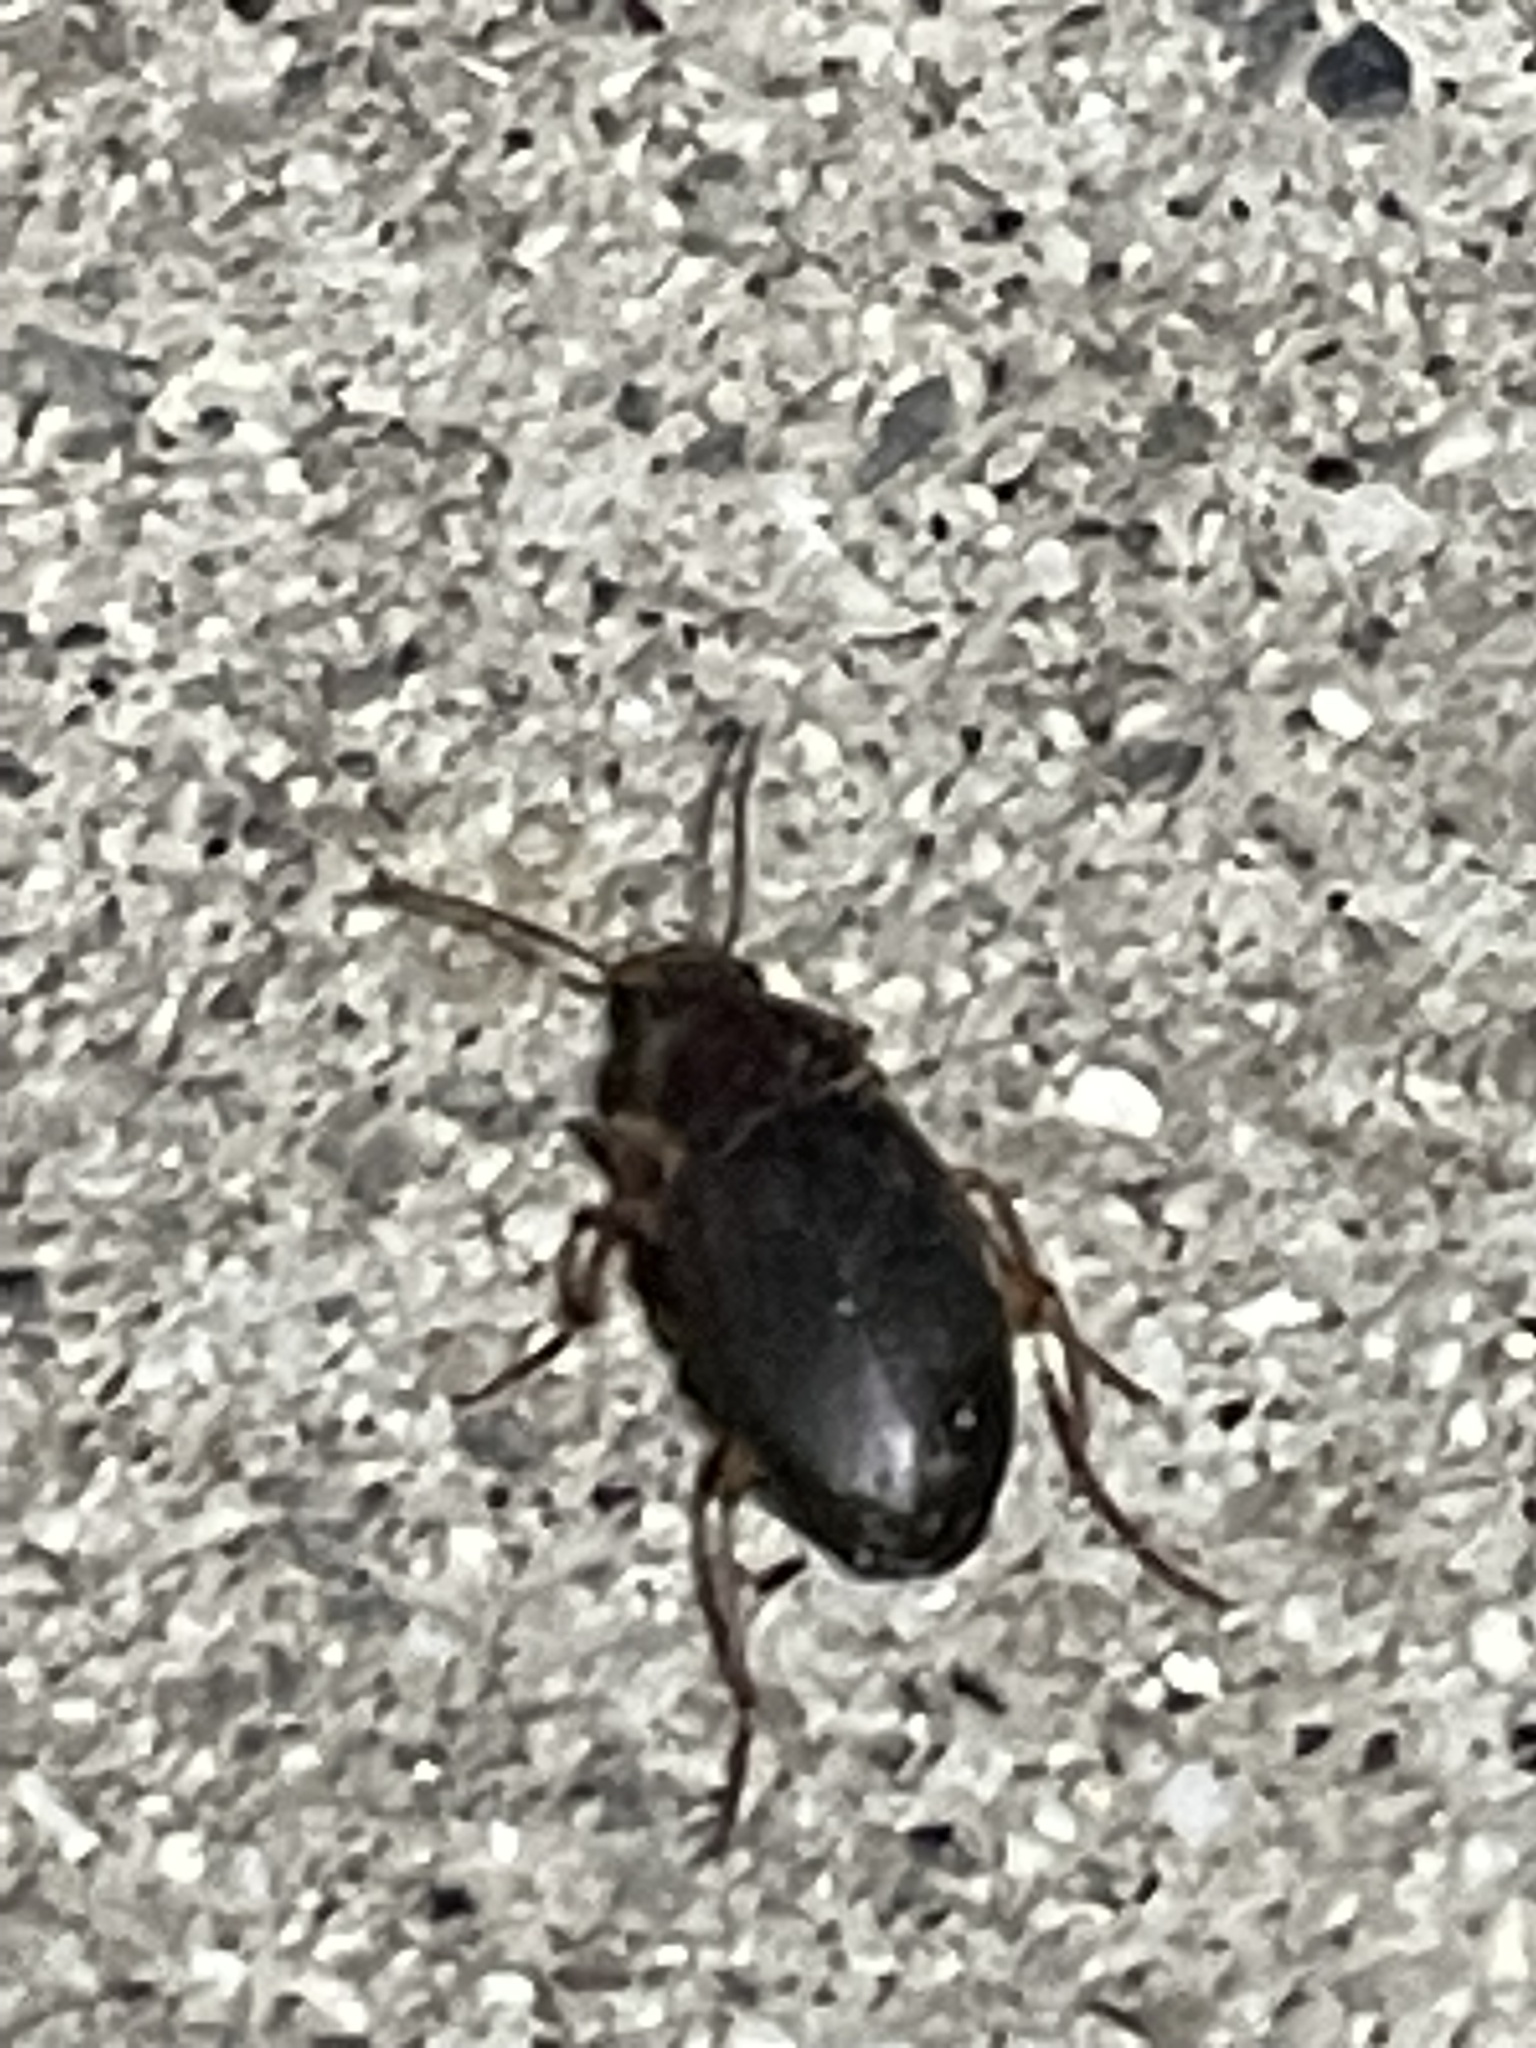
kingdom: Animalia
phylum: Arthropoda
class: Insecta
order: Coleoptera
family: Carabidae
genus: Calathus
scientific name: Calathus ruficollis
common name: Red-collared harp ground beetle
